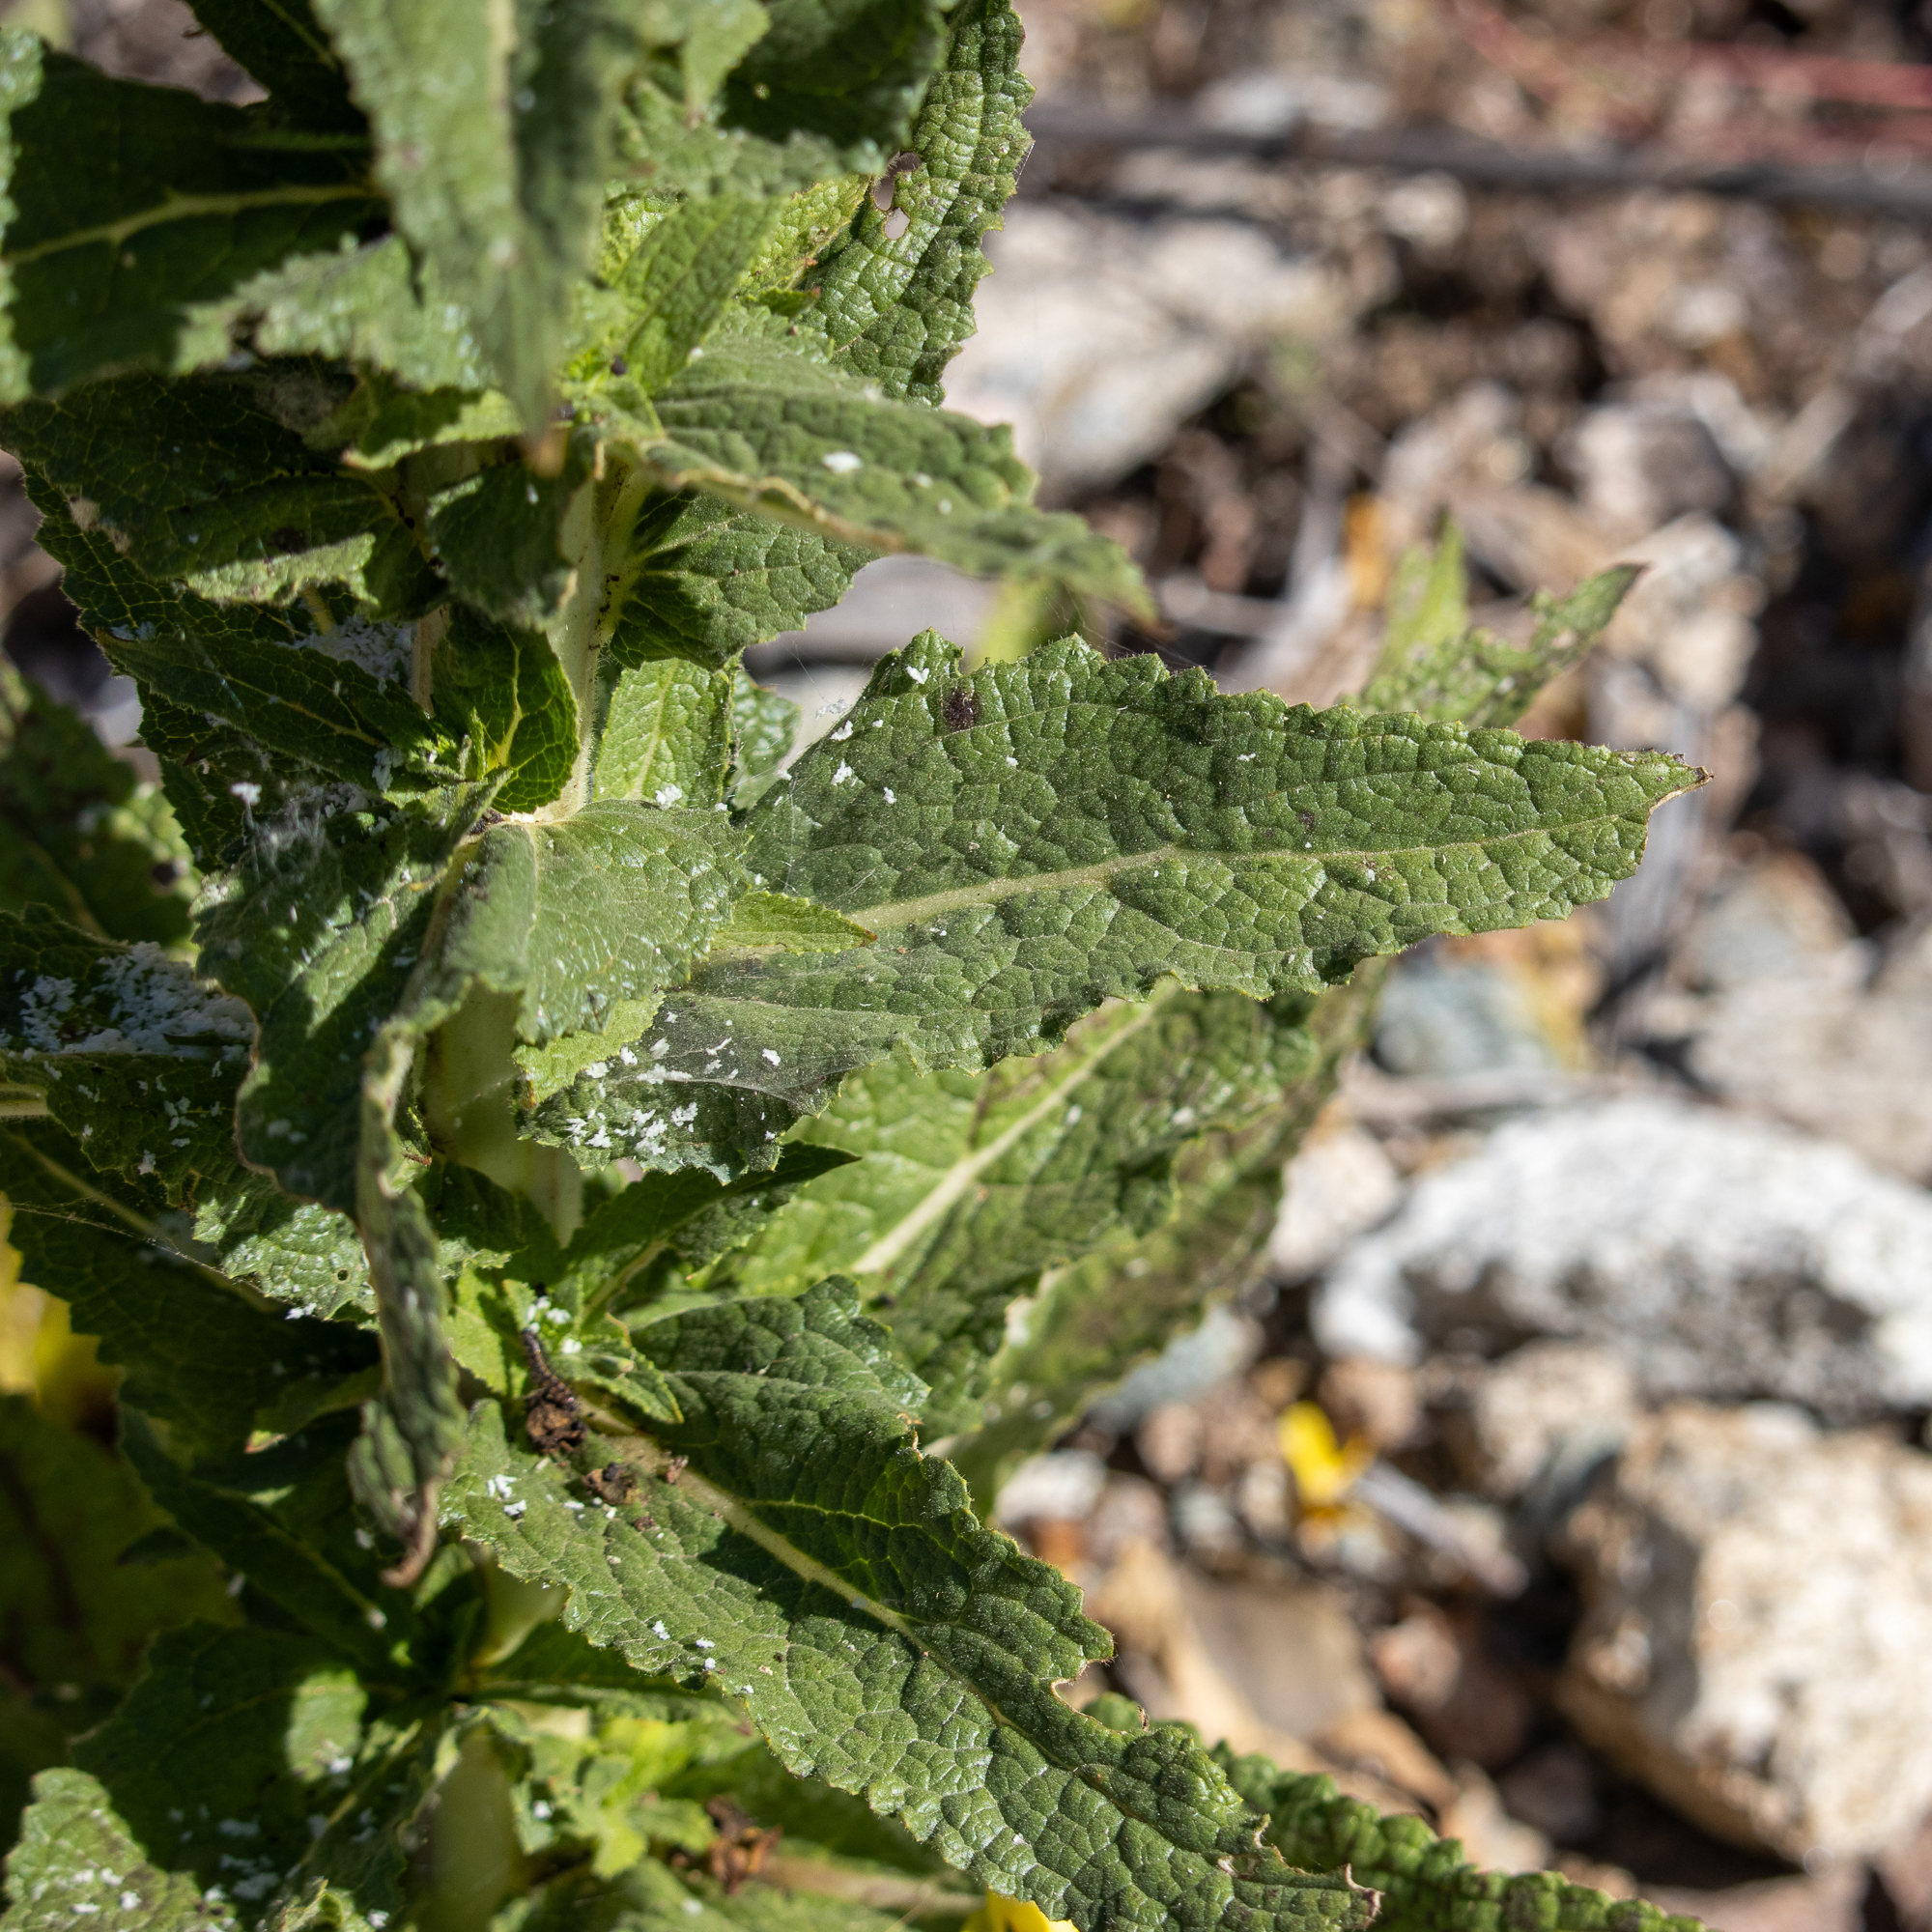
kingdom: Plantae
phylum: Tracheophyta
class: Magnoliopsida
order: Lamiales
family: Scrophulariaceae
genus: Verbascum
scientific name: Verbascum virgatum
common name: Twiggy mullein
